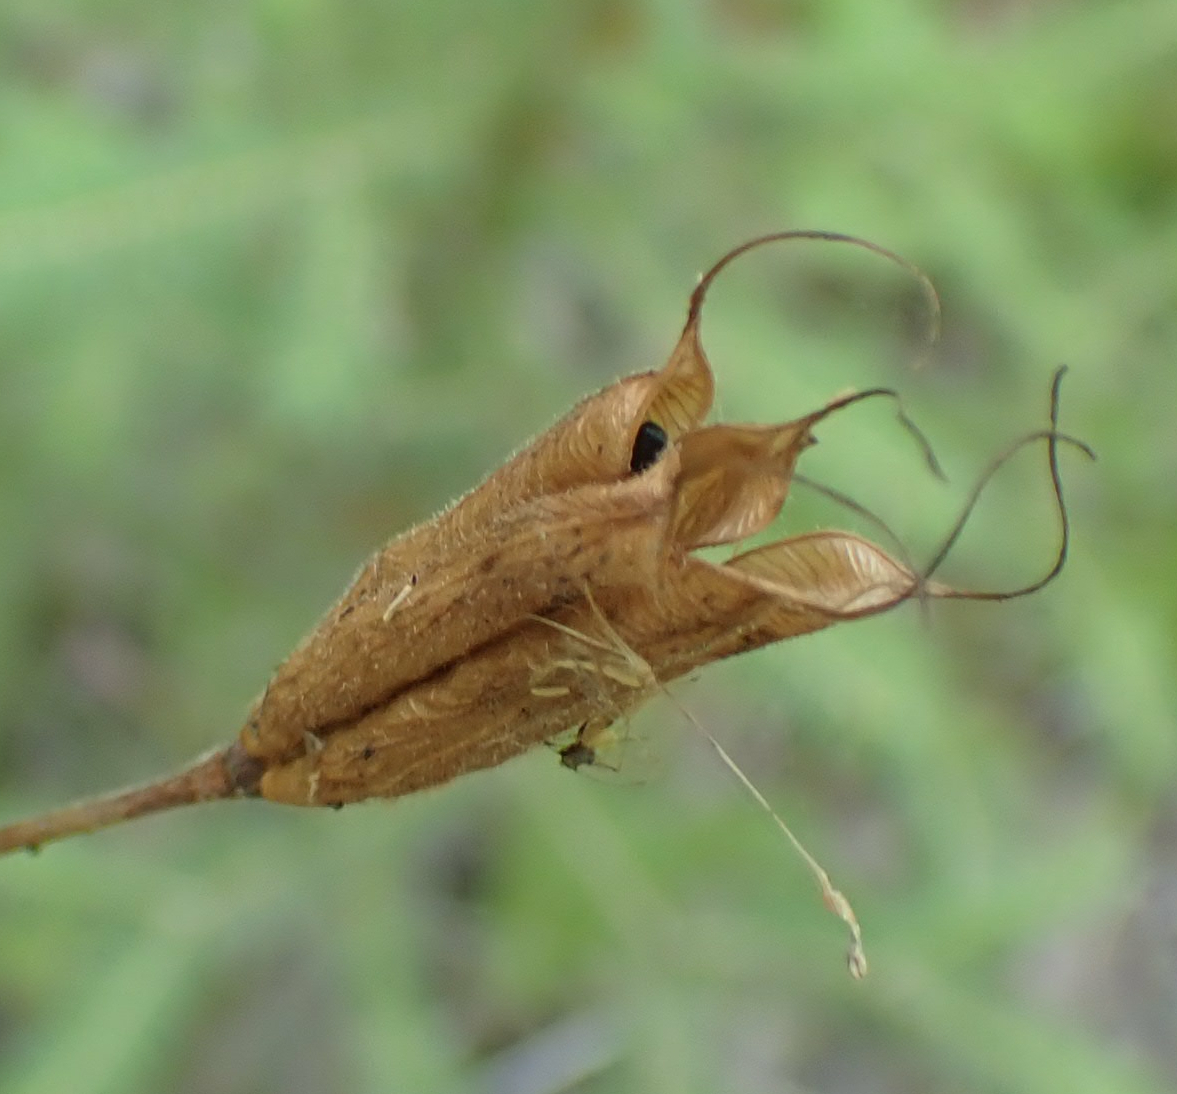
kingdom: Plantae
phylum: Tracheophyta
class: Magnoliopsida
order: Ranunculales
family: Ranunculaceae
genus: Aquilegia
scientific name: Aquilegia canadensis
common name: American columbine
